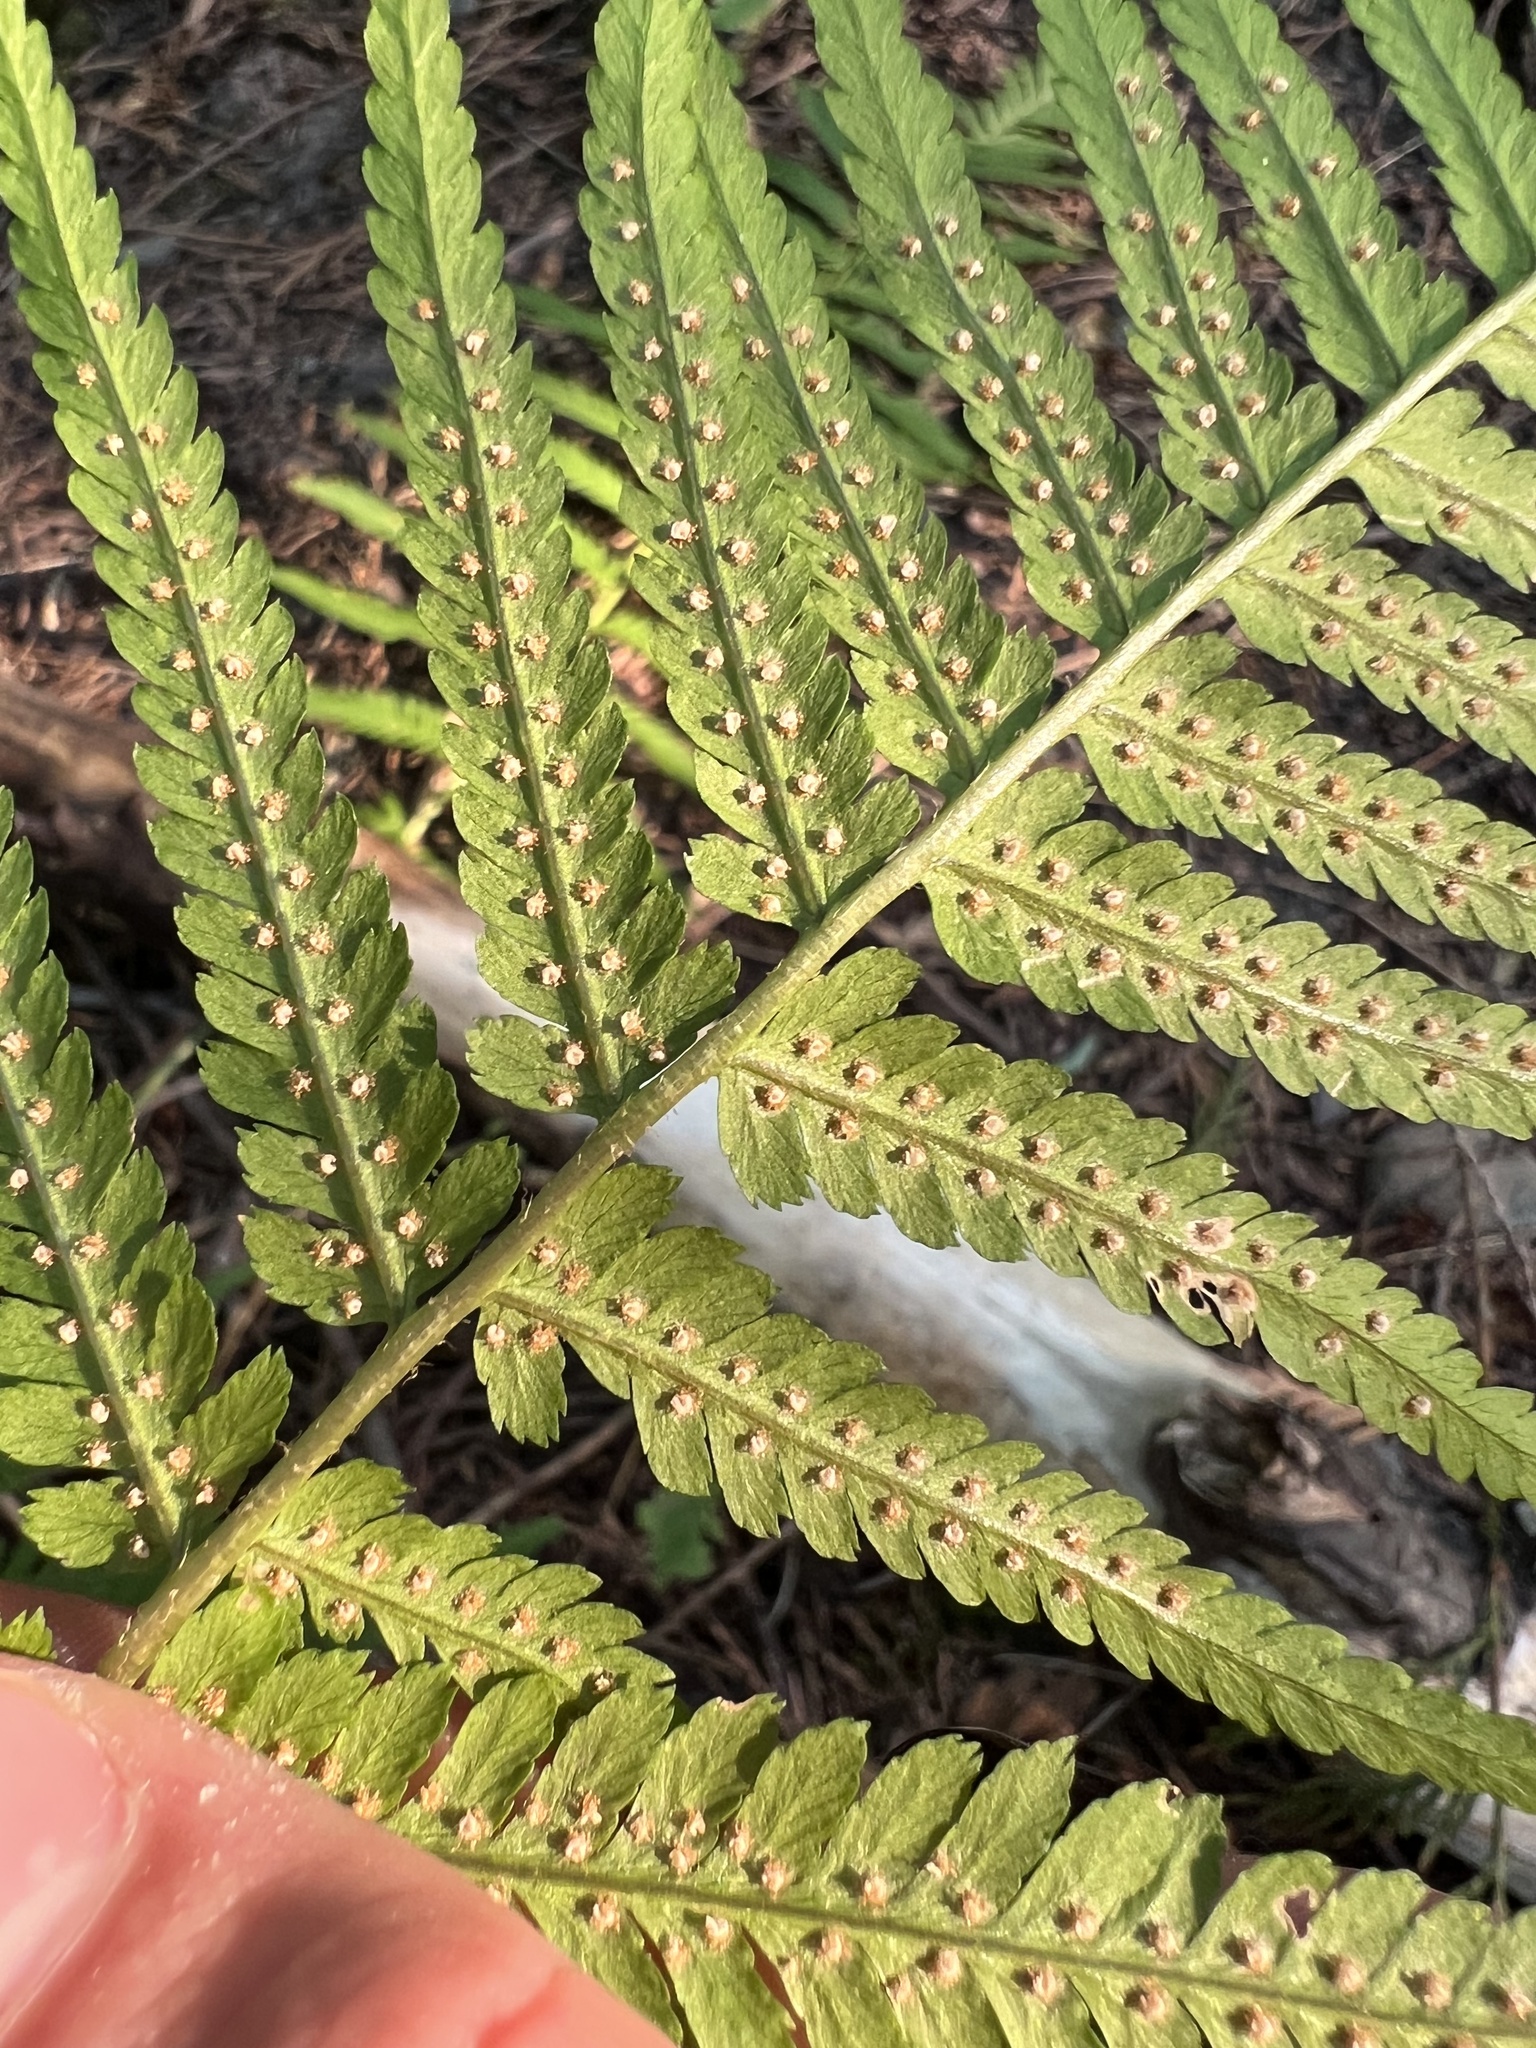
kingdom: Plantae
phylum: Tracheophyta
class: Polypodiopsida
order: Polypodiales
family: Dryopteridaceae
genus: Dryopteris
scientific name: Dryopteris filix-mas
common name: Male fern
